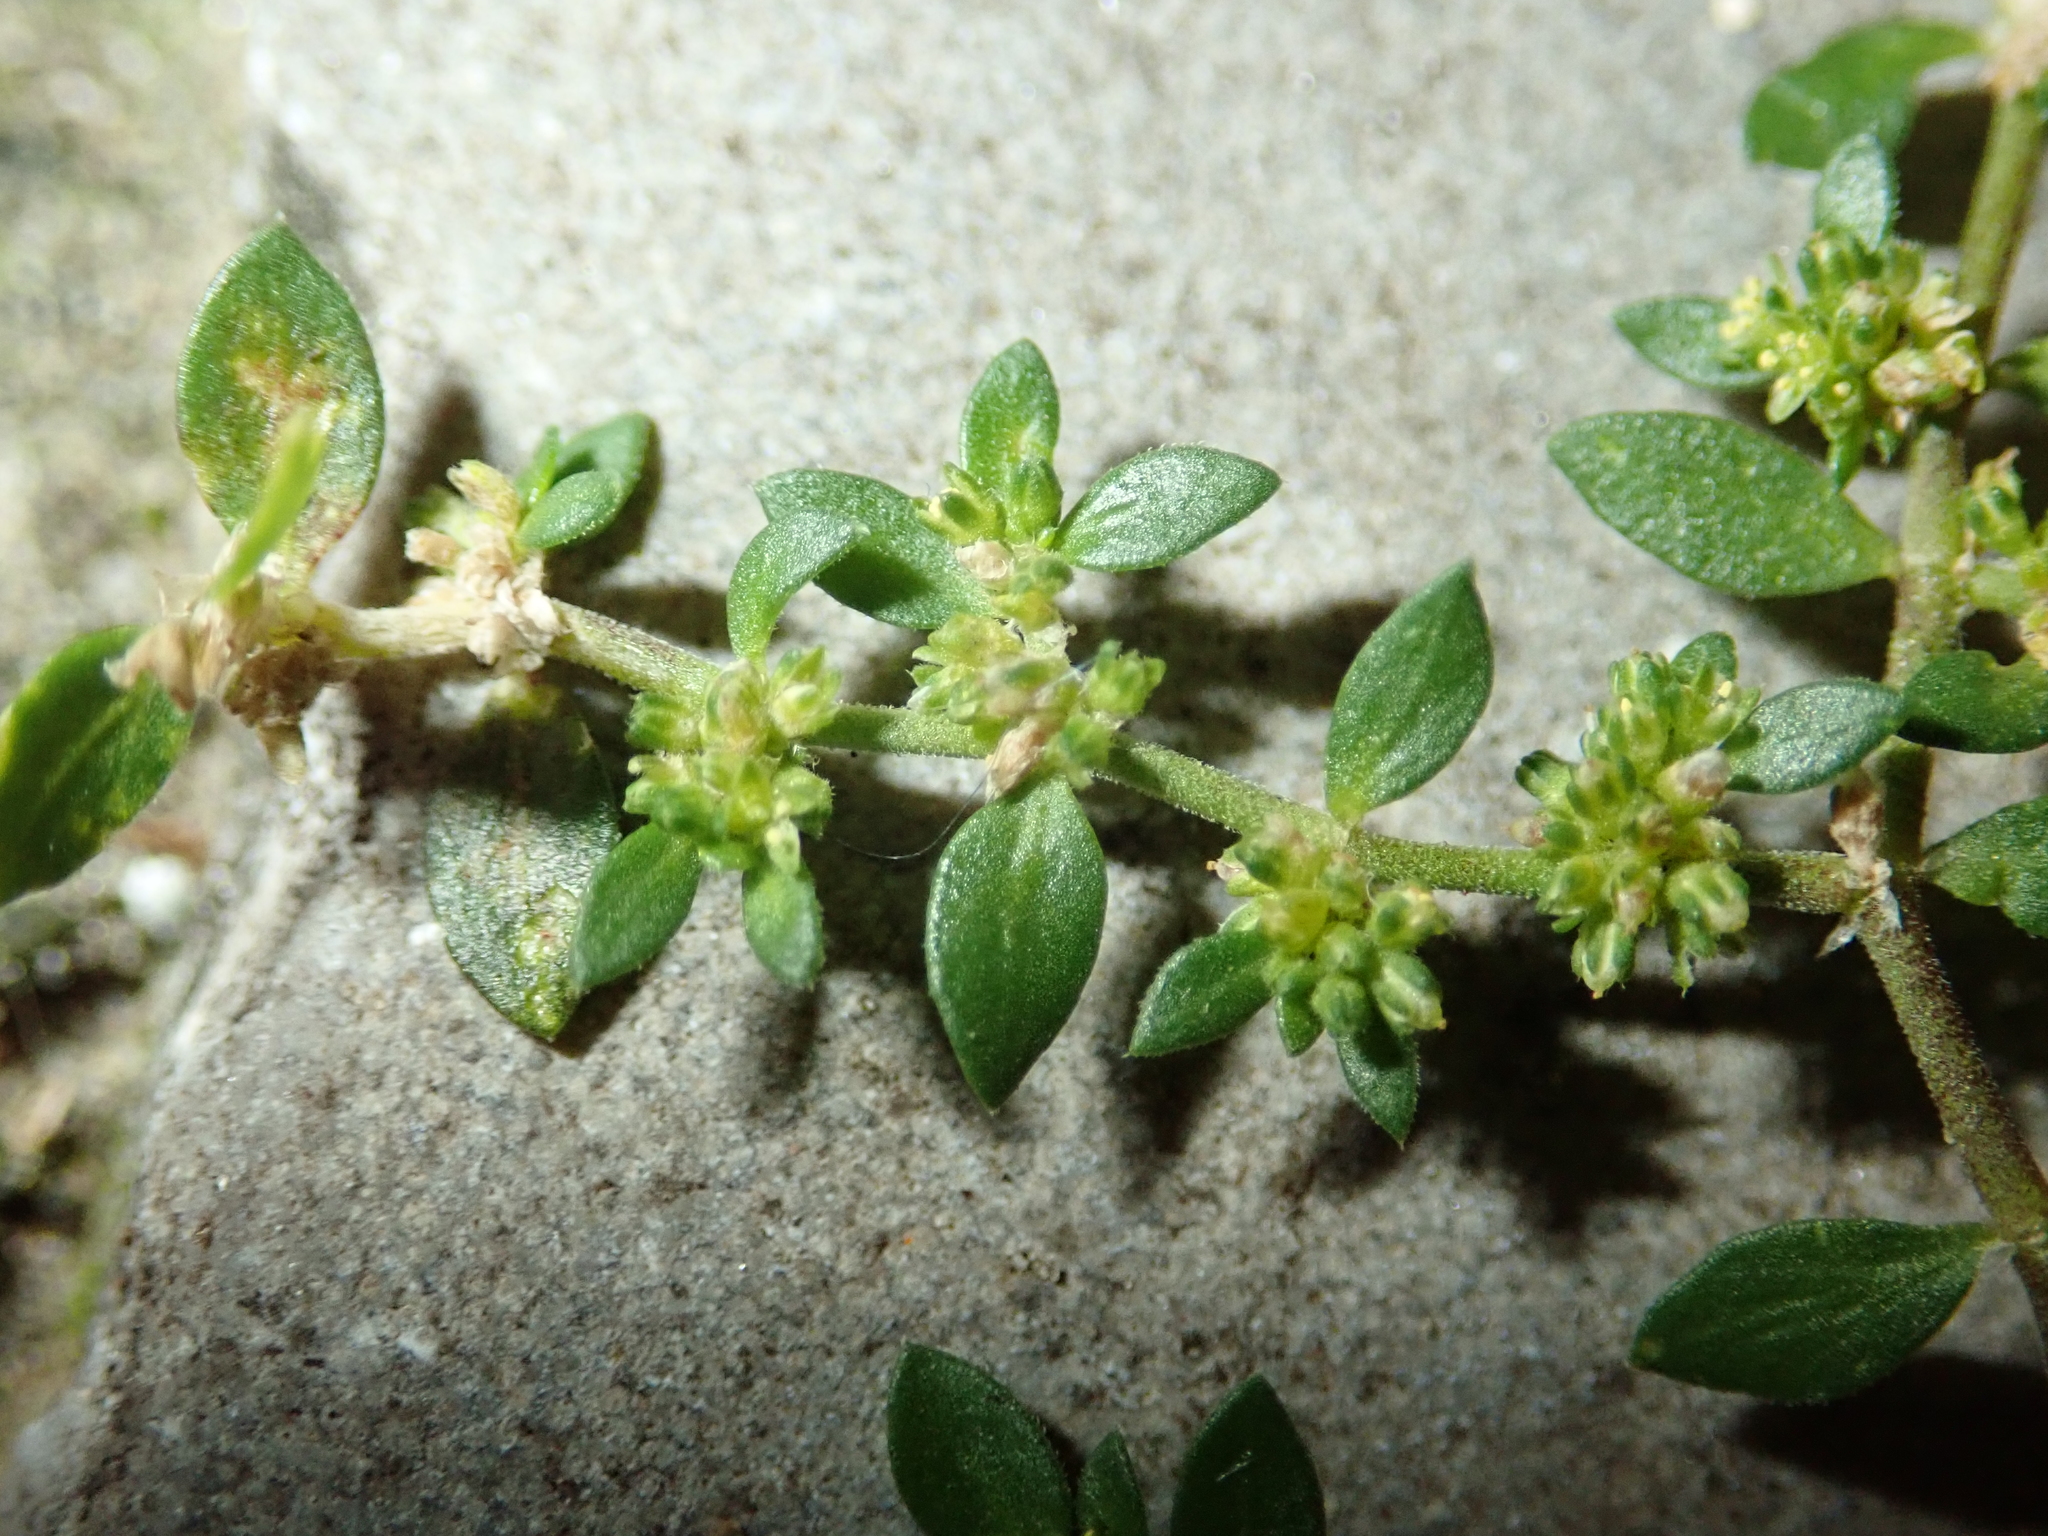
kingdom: Plantae
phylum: Tracheophyta
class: Magnoliopsida
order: Caryophyllales
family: Caryophyllaceae
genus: Herniaria
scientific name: Herniaria glabra
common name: Smooth rupturewort
